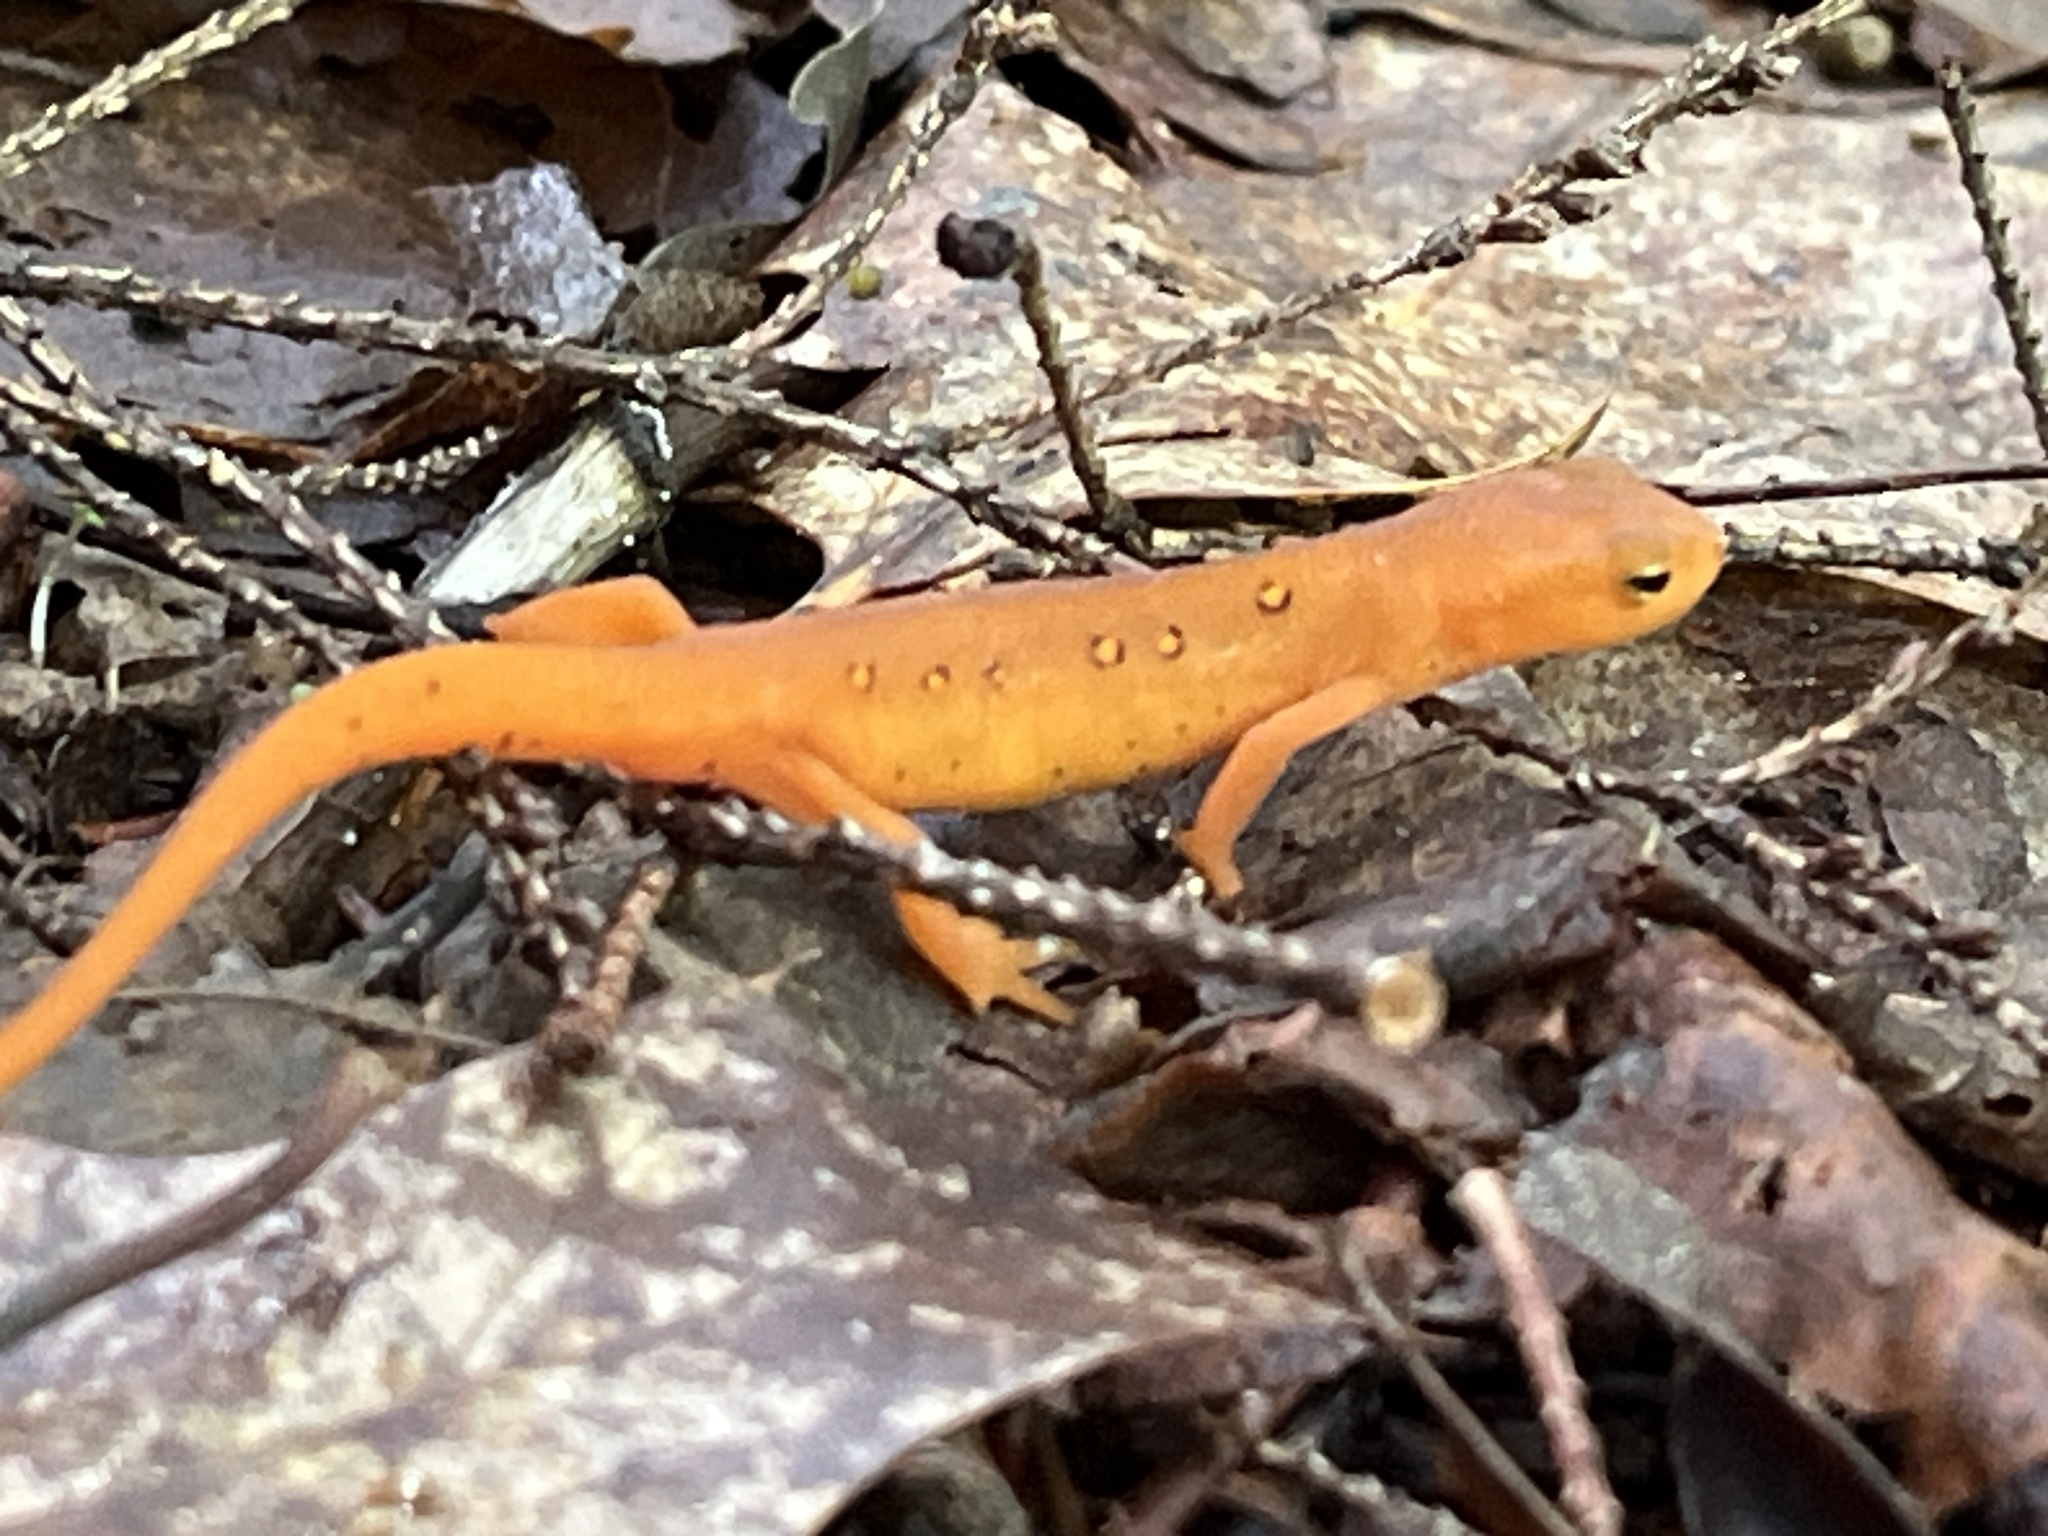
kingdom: Animalia
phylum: Chordata
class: Amphibia
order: Caudata
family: Salamandridae
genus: Notophthalmus
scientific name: Notophthalmus viridescens
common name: Eastern newt
